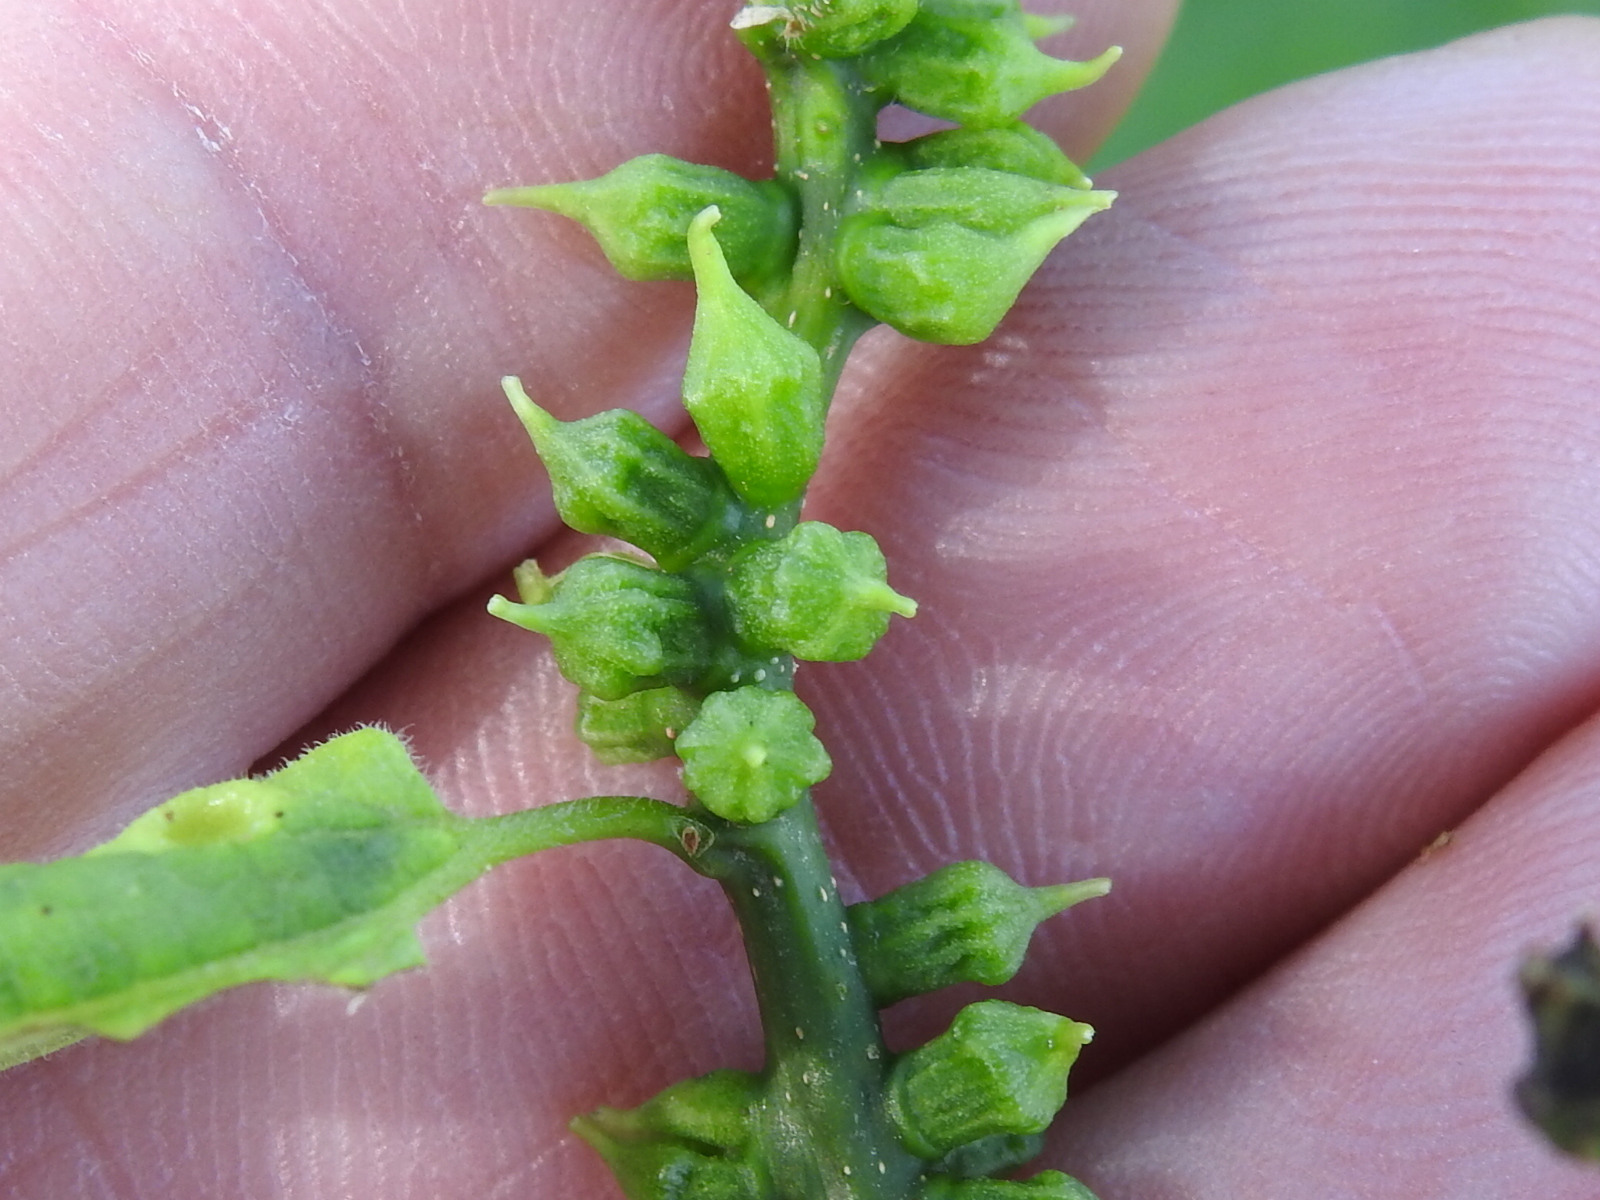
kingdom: Animalia
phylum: Arthropoda
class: Insecta
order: Diptera
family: Cecidomyiidae
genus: Celticecis
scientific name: Celticecis ramicola
